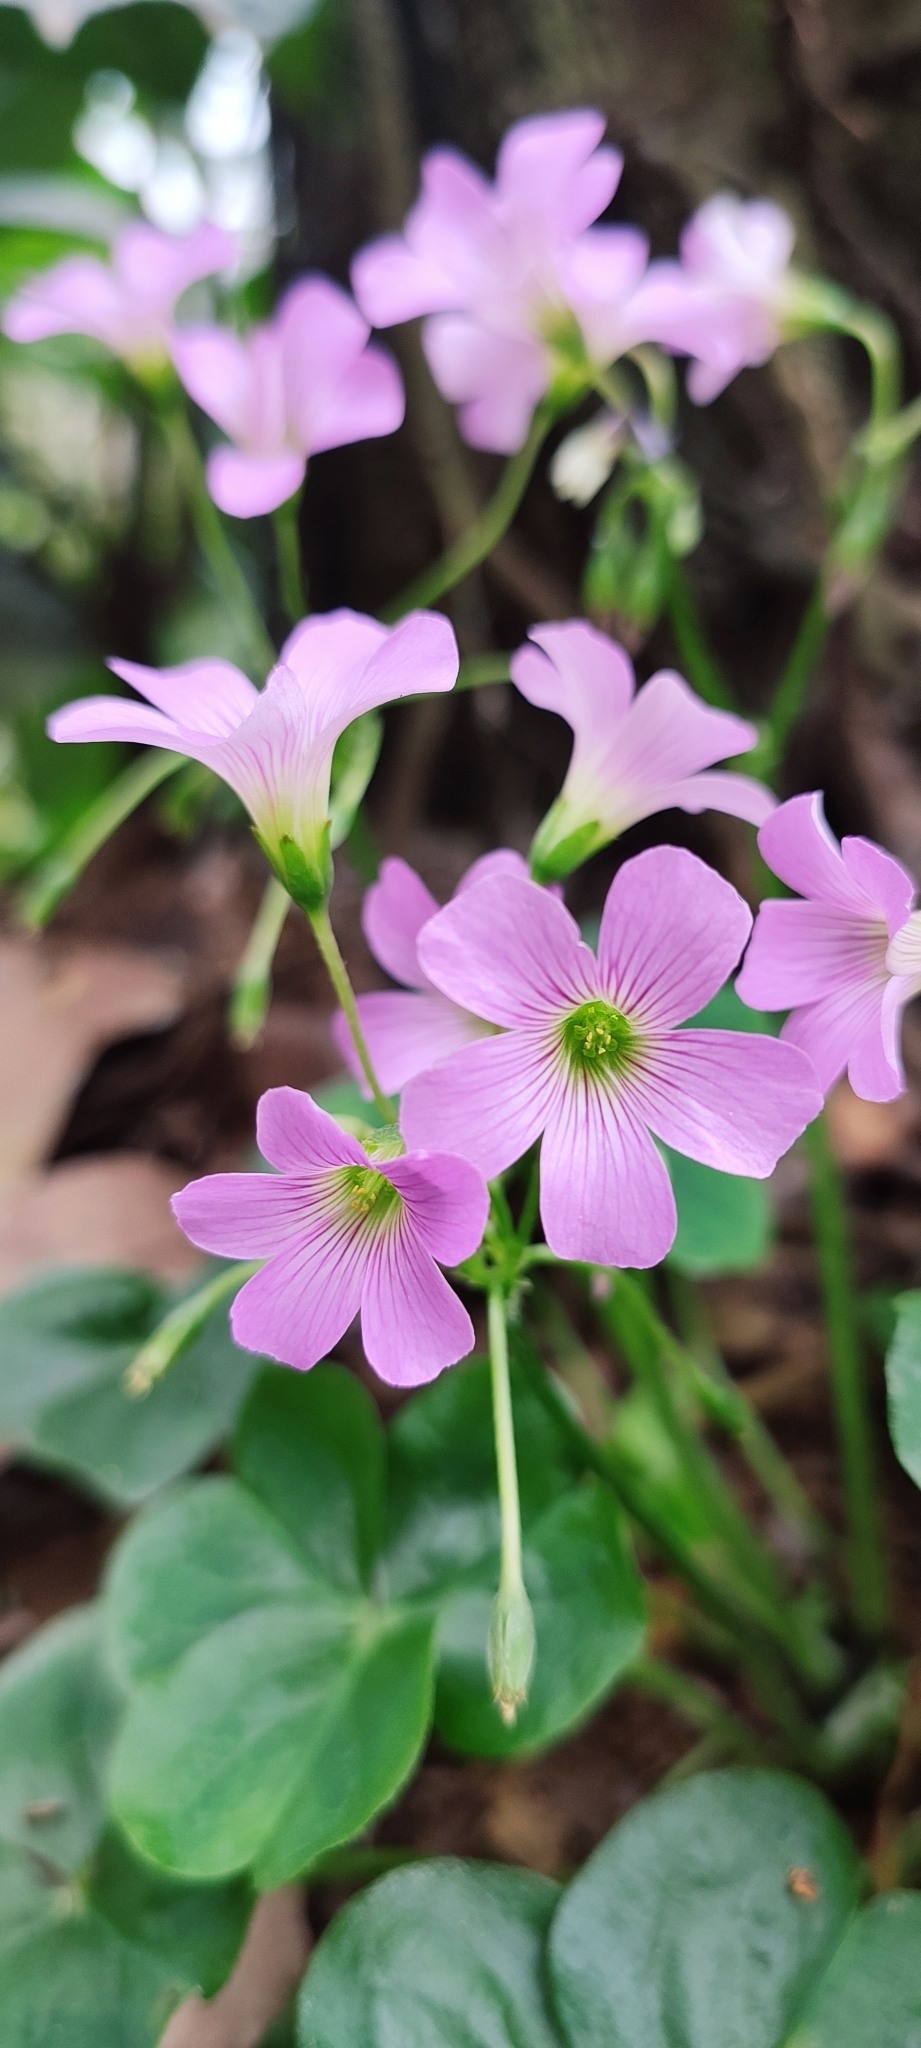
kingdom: Plantae
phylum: Tracheophyta
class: Magnoliopsida
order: Oxalidales
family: Oxalidaceae
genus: Oxalis
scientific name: Oxalis debilis
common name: Large-flowered pink-sorrel
